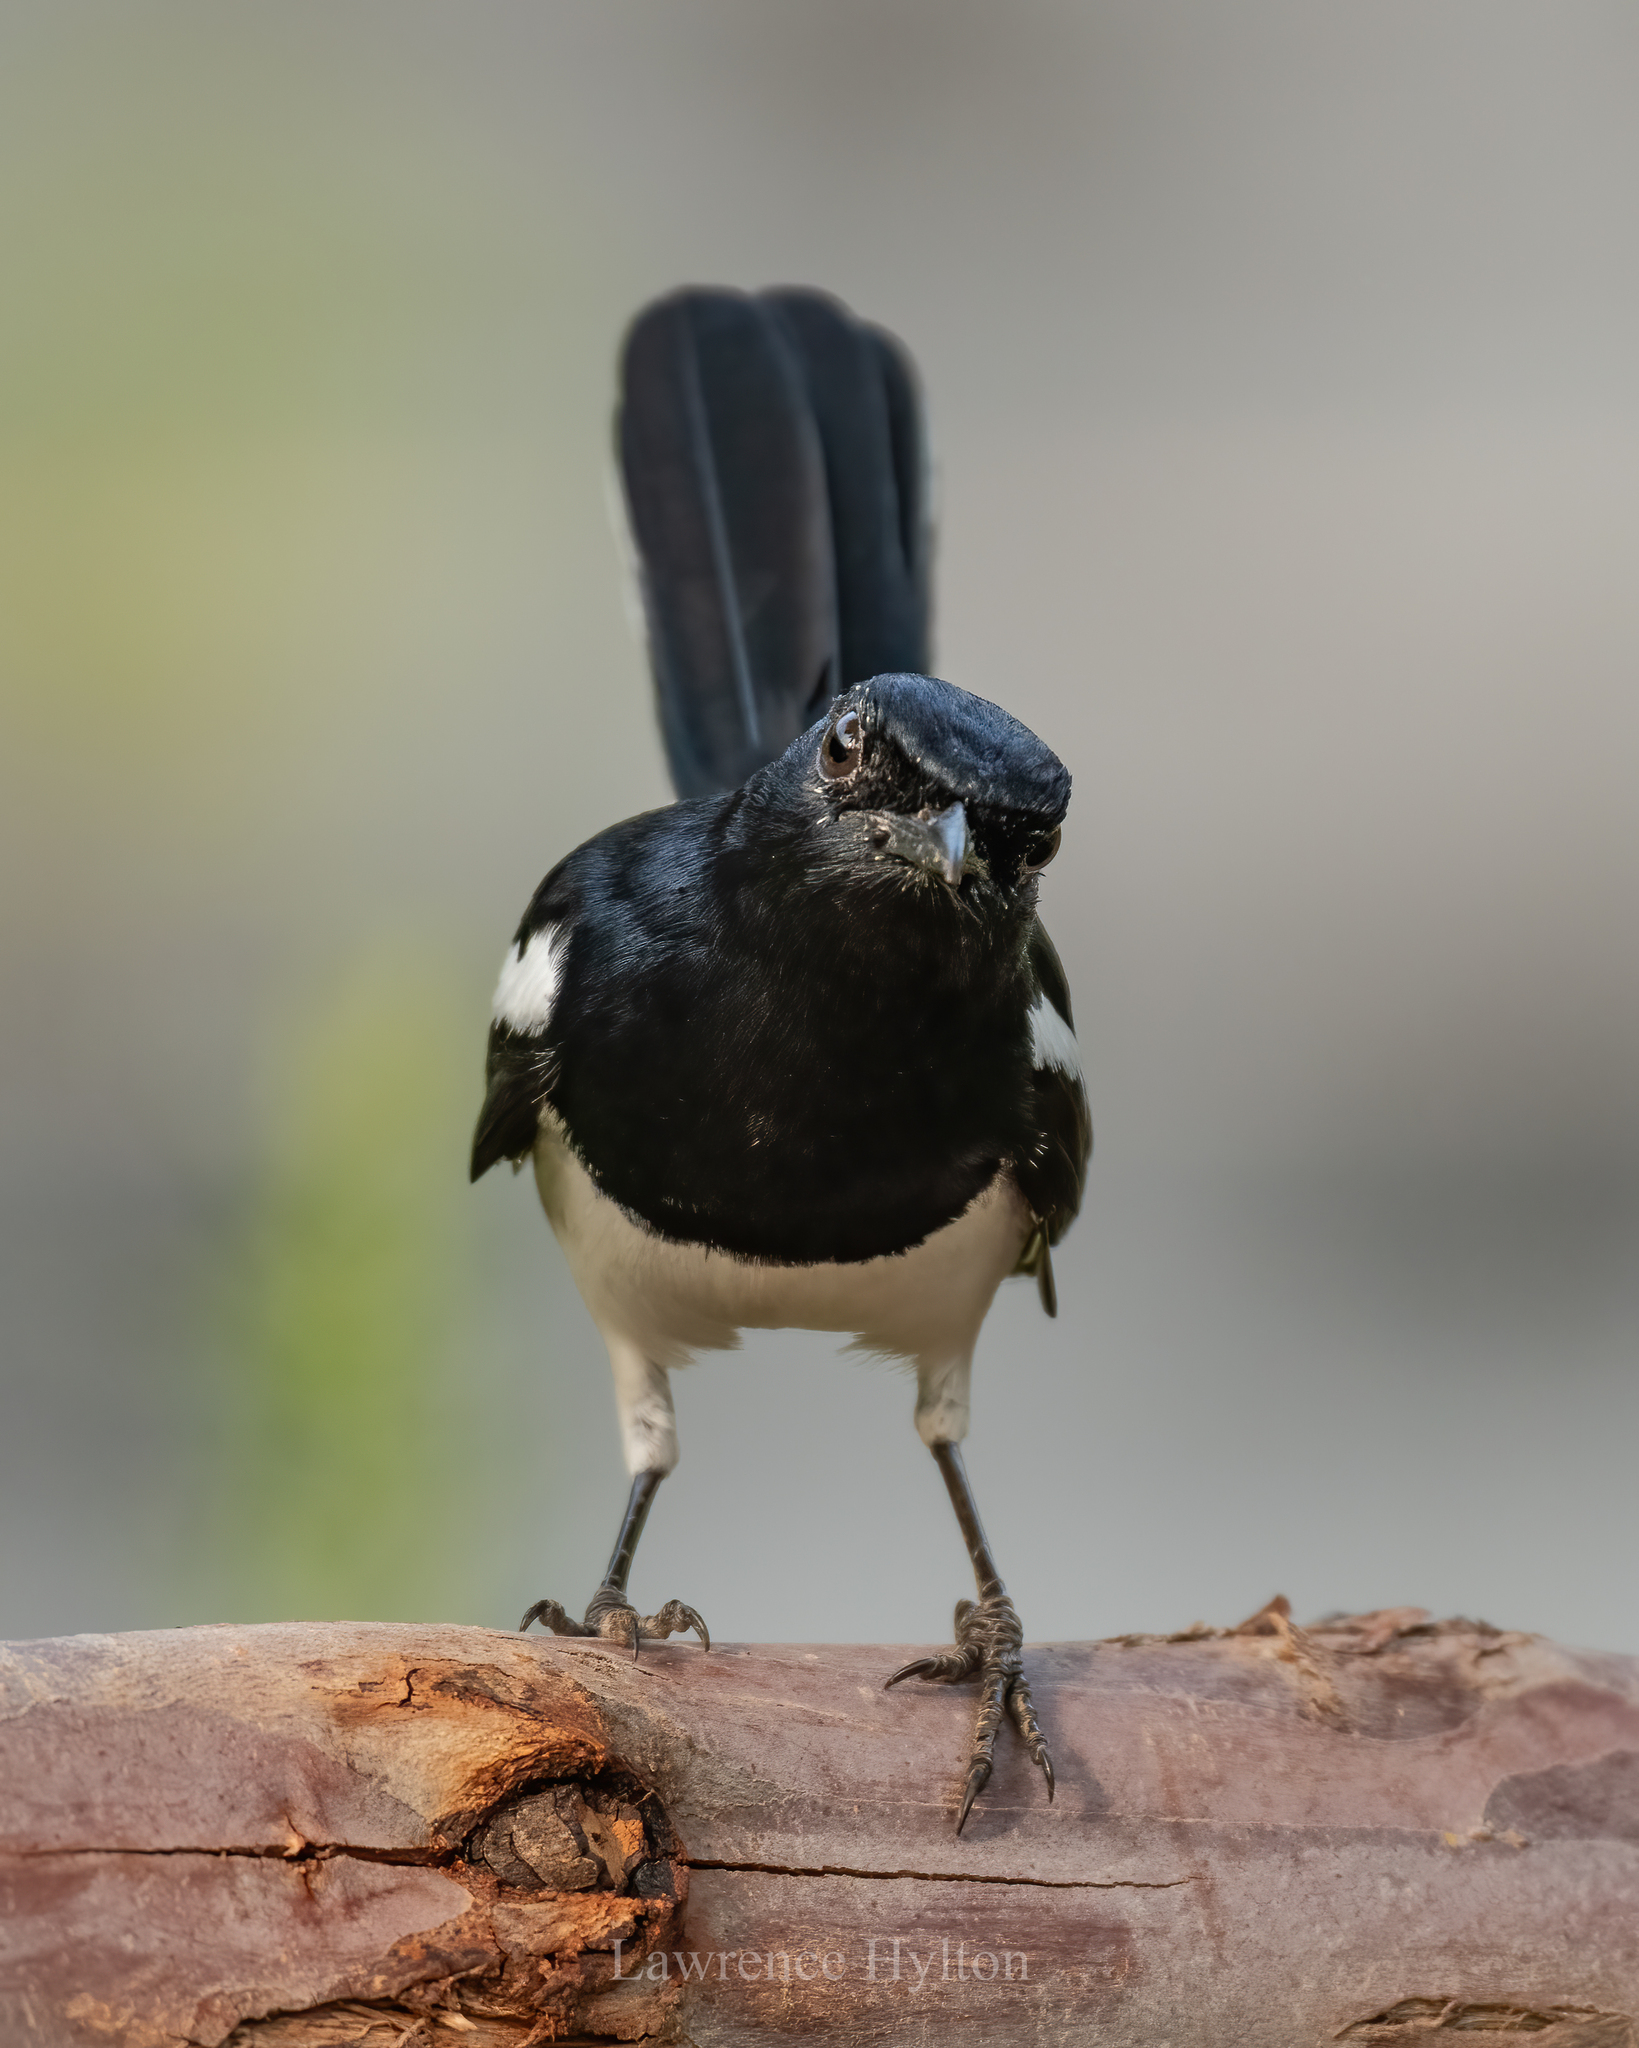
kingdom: Animalia
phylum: Chordata
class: Aves
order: Passeriformes
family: Muscicapidae
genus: Copsychus
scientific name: Copsychus saularis
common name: Oriental magpie-robin
